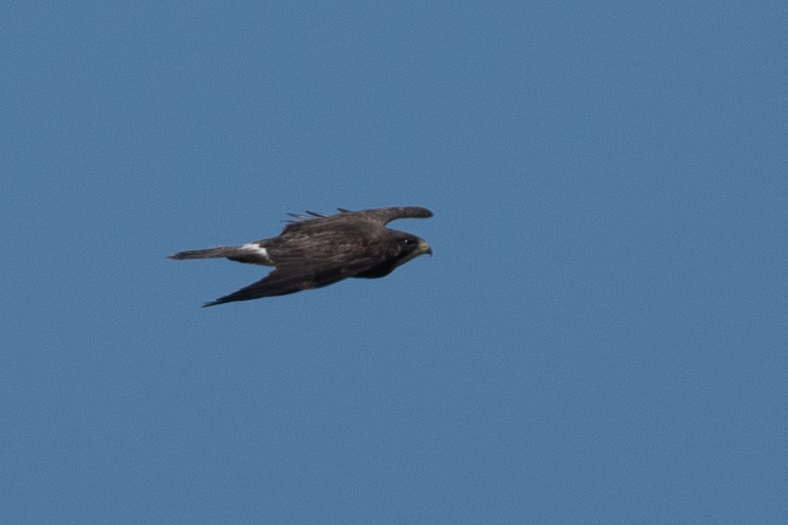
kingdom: Animalia
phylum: Chordata
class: Aves
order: Accipitriformes
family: Accipitridae
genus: Buteo
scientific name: Buteo swainsoni
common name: Swainson's hawk
